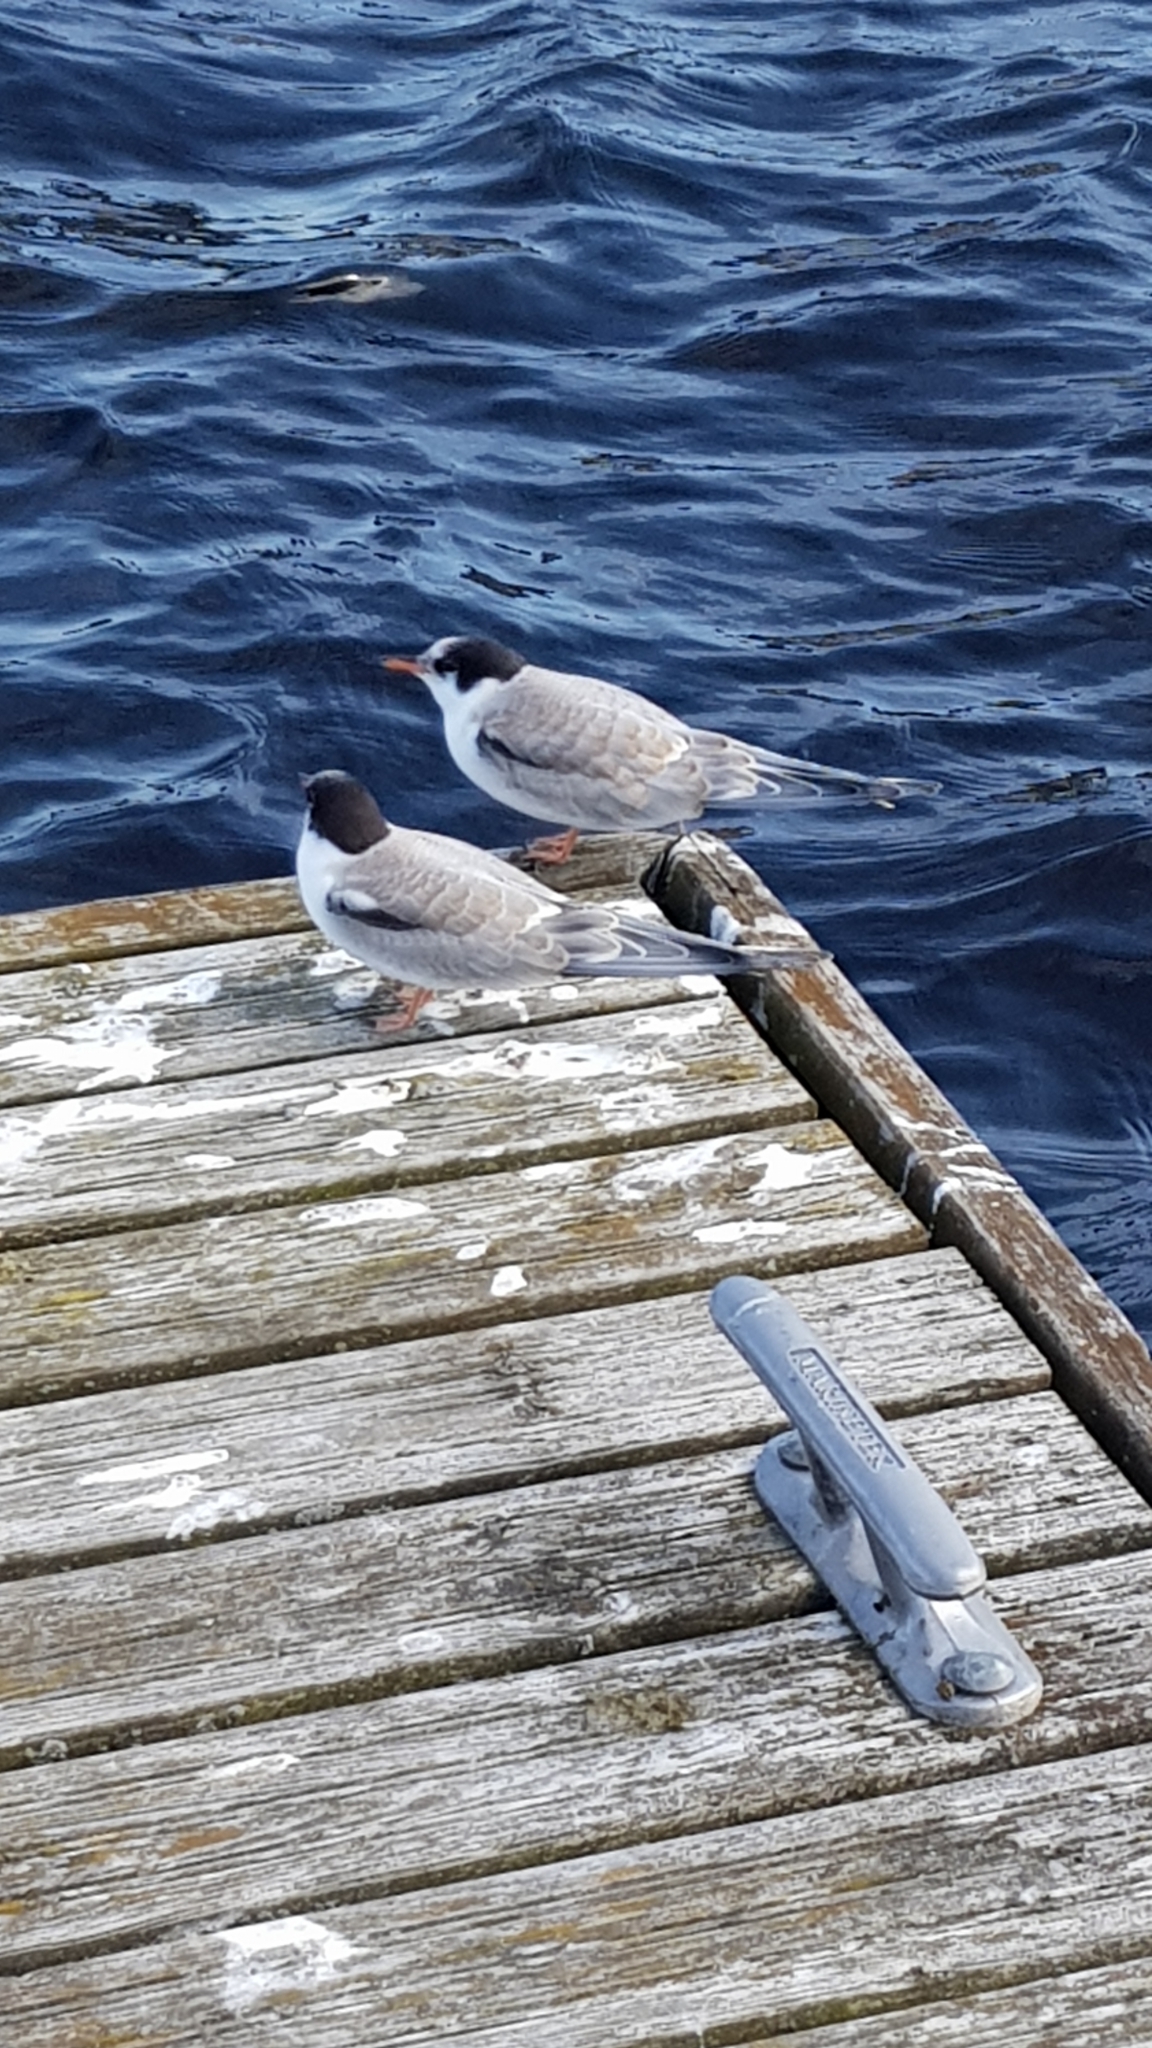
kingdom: Animalia
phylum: Chordata
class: Aves
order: Charadriiformes
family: Laridae
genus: Sterna
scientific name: Sterna hirundo
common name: Common tern
